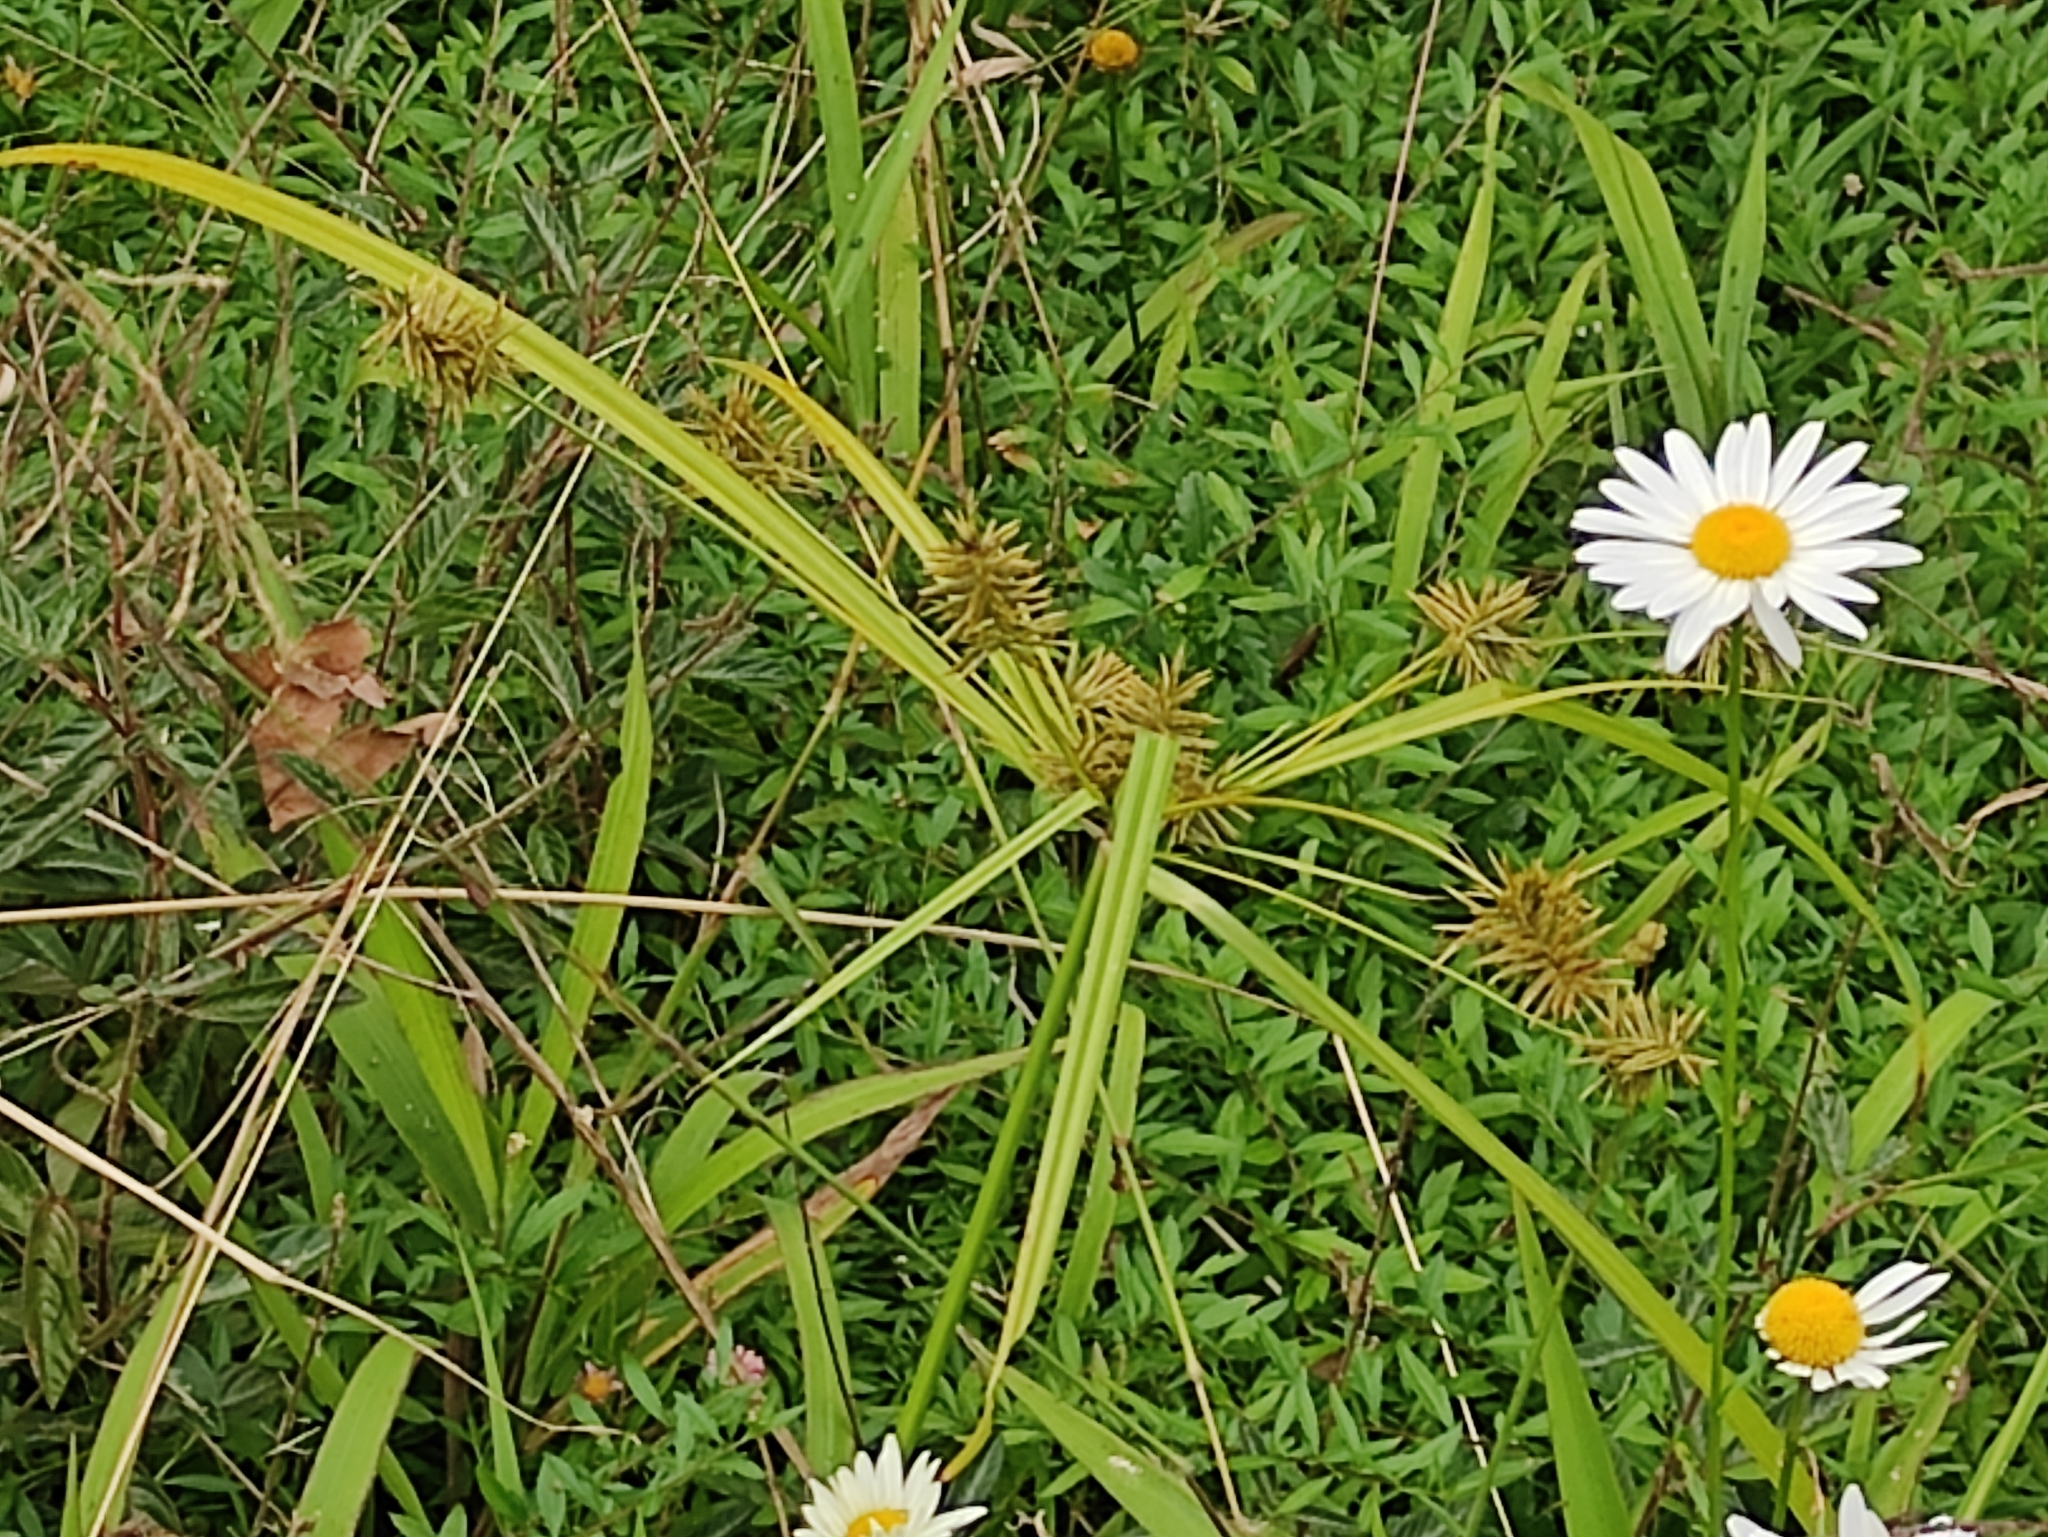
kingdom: Plantae
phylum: Tracheophyta
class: Liliopsida
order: Poales
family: Cyperaceae
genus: Cyperus
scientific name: Cyperus luteus
